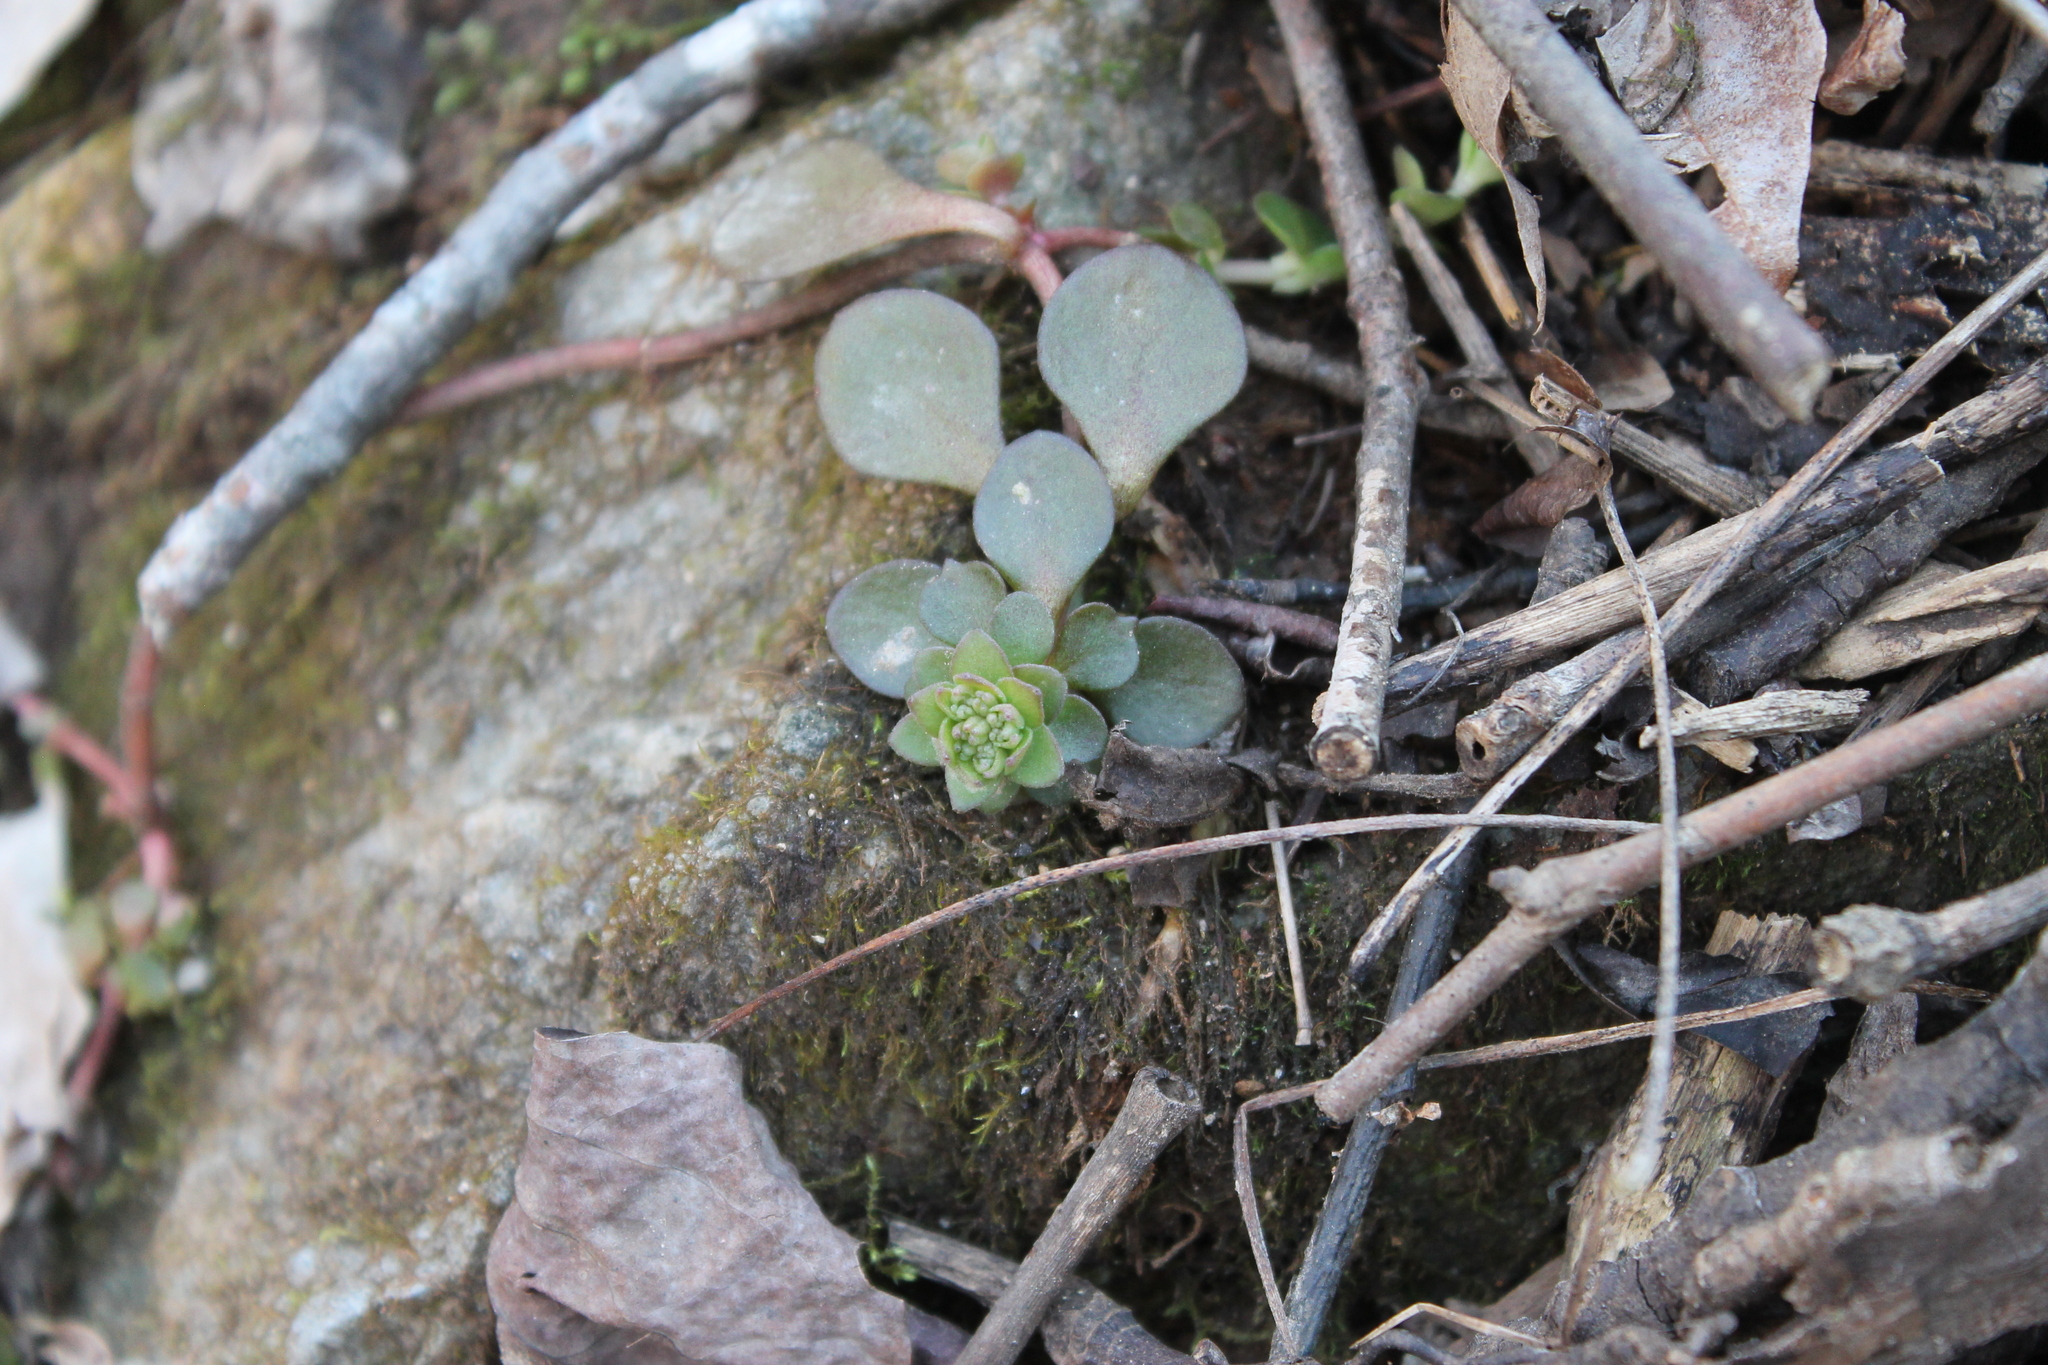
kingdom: Plantae
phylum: Tracheophyta
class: Magnoliopsida
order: Saxifragales
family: Crassulaceae
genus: Sedum
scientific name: Sedum ternatum
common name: Wild stonecrop
